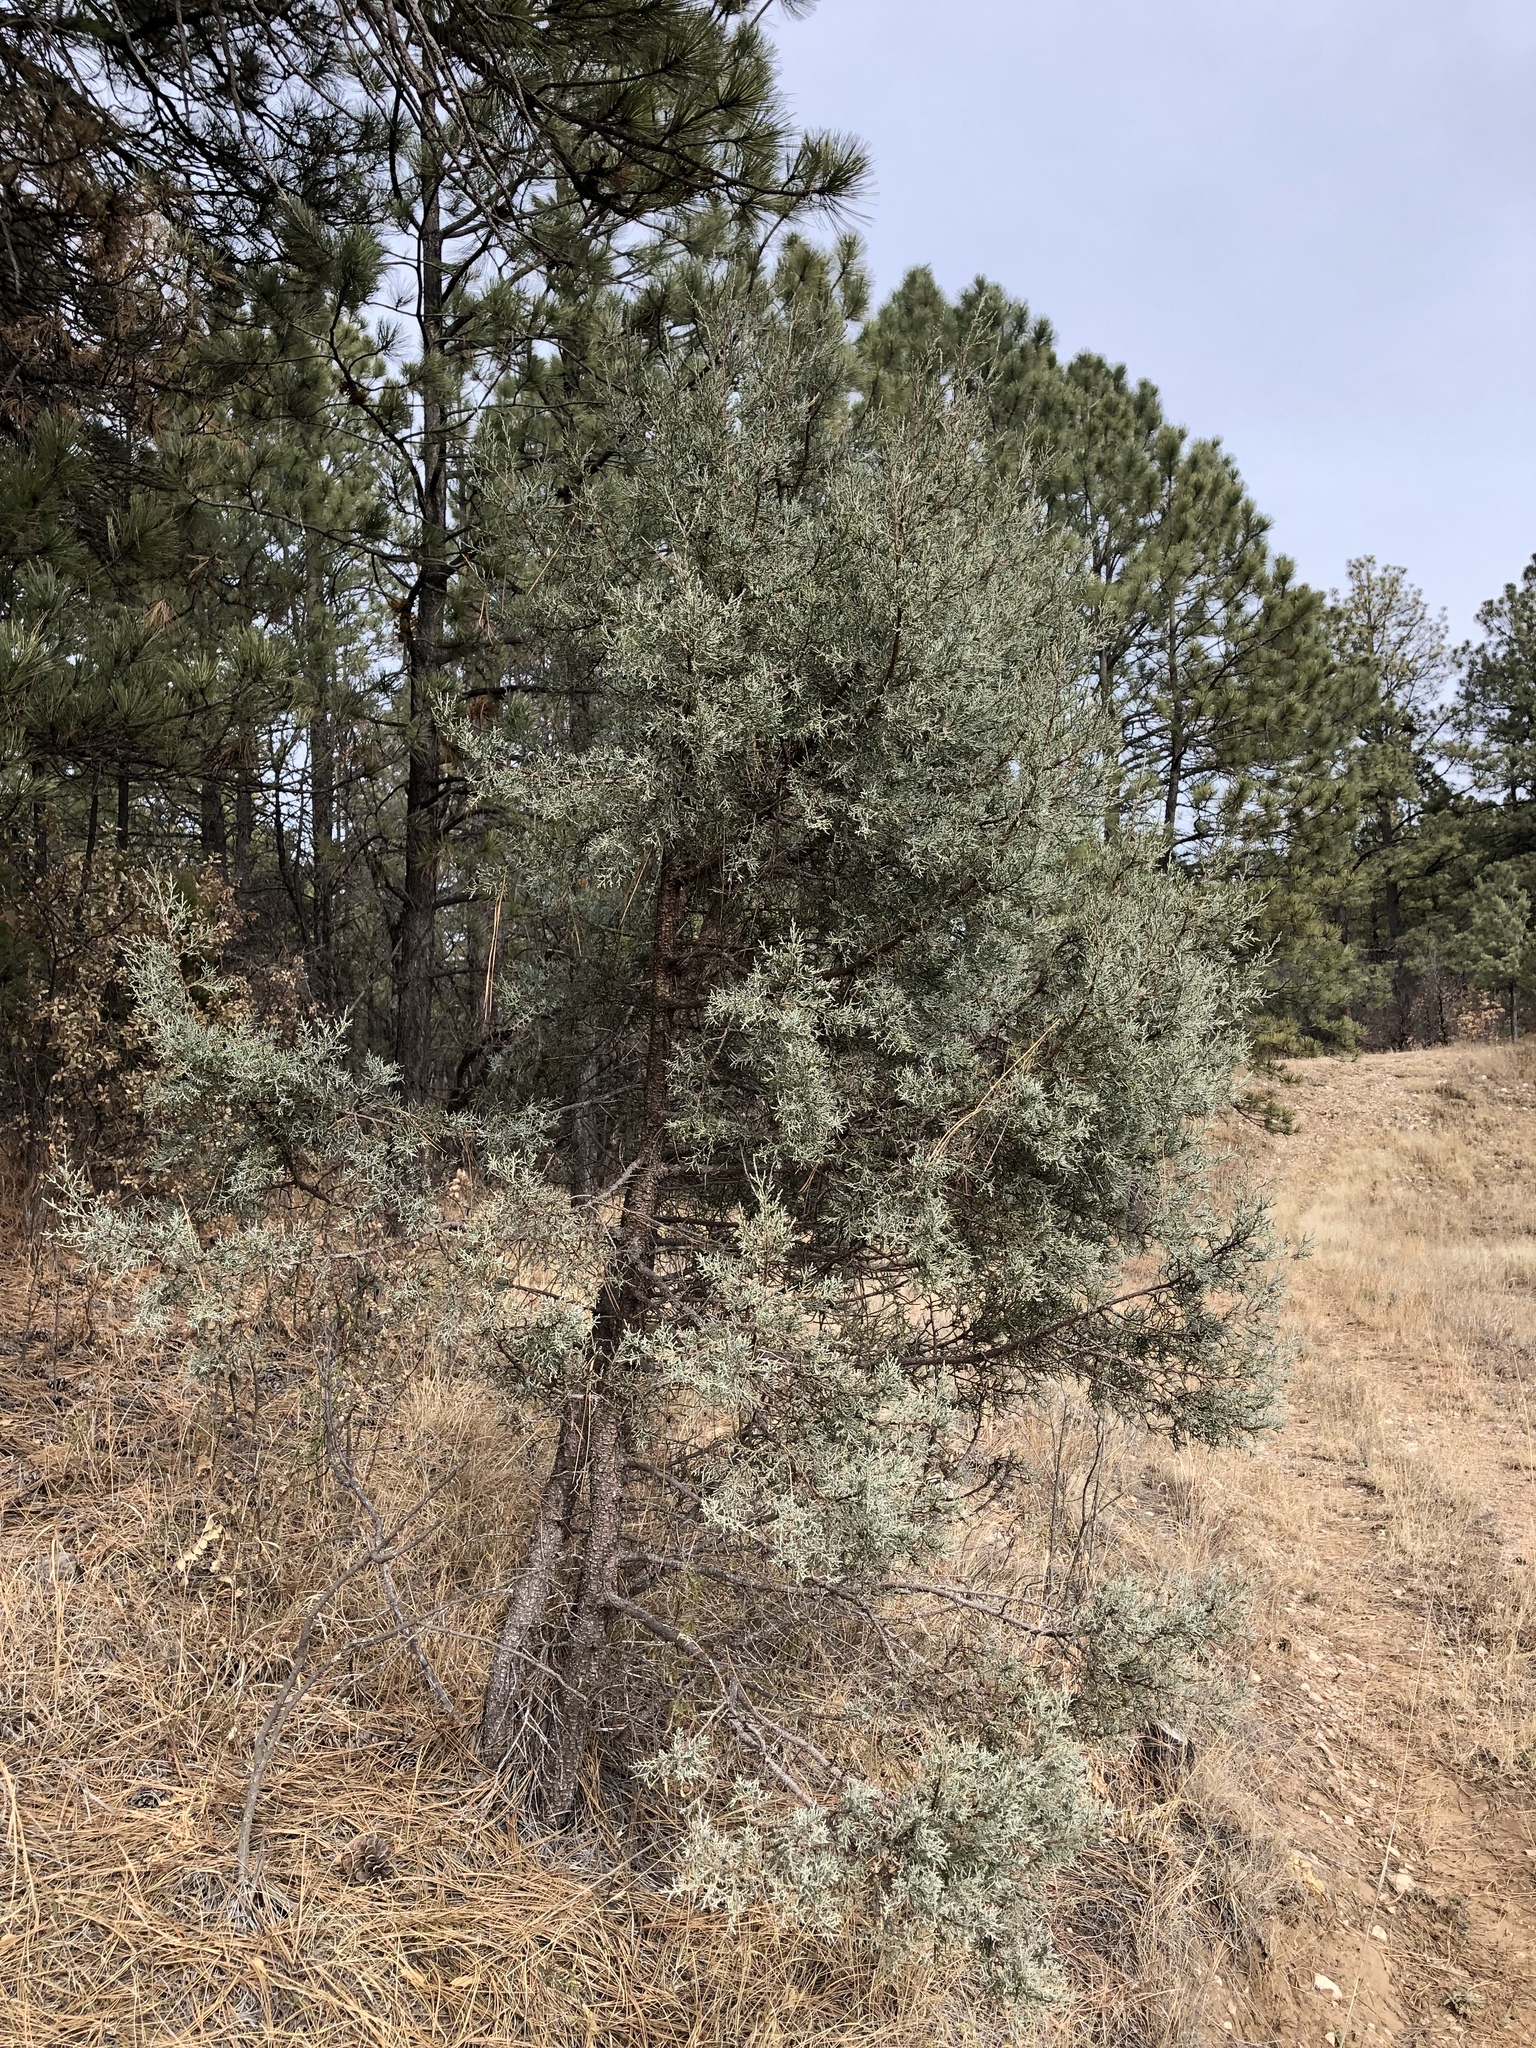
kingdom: Plantae
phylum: Tracheophyta
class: Pinopsida
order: Pinales
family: Cupressaceae
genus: Juniperus
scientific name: Juniperus deppeana
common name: Alligator juniper
